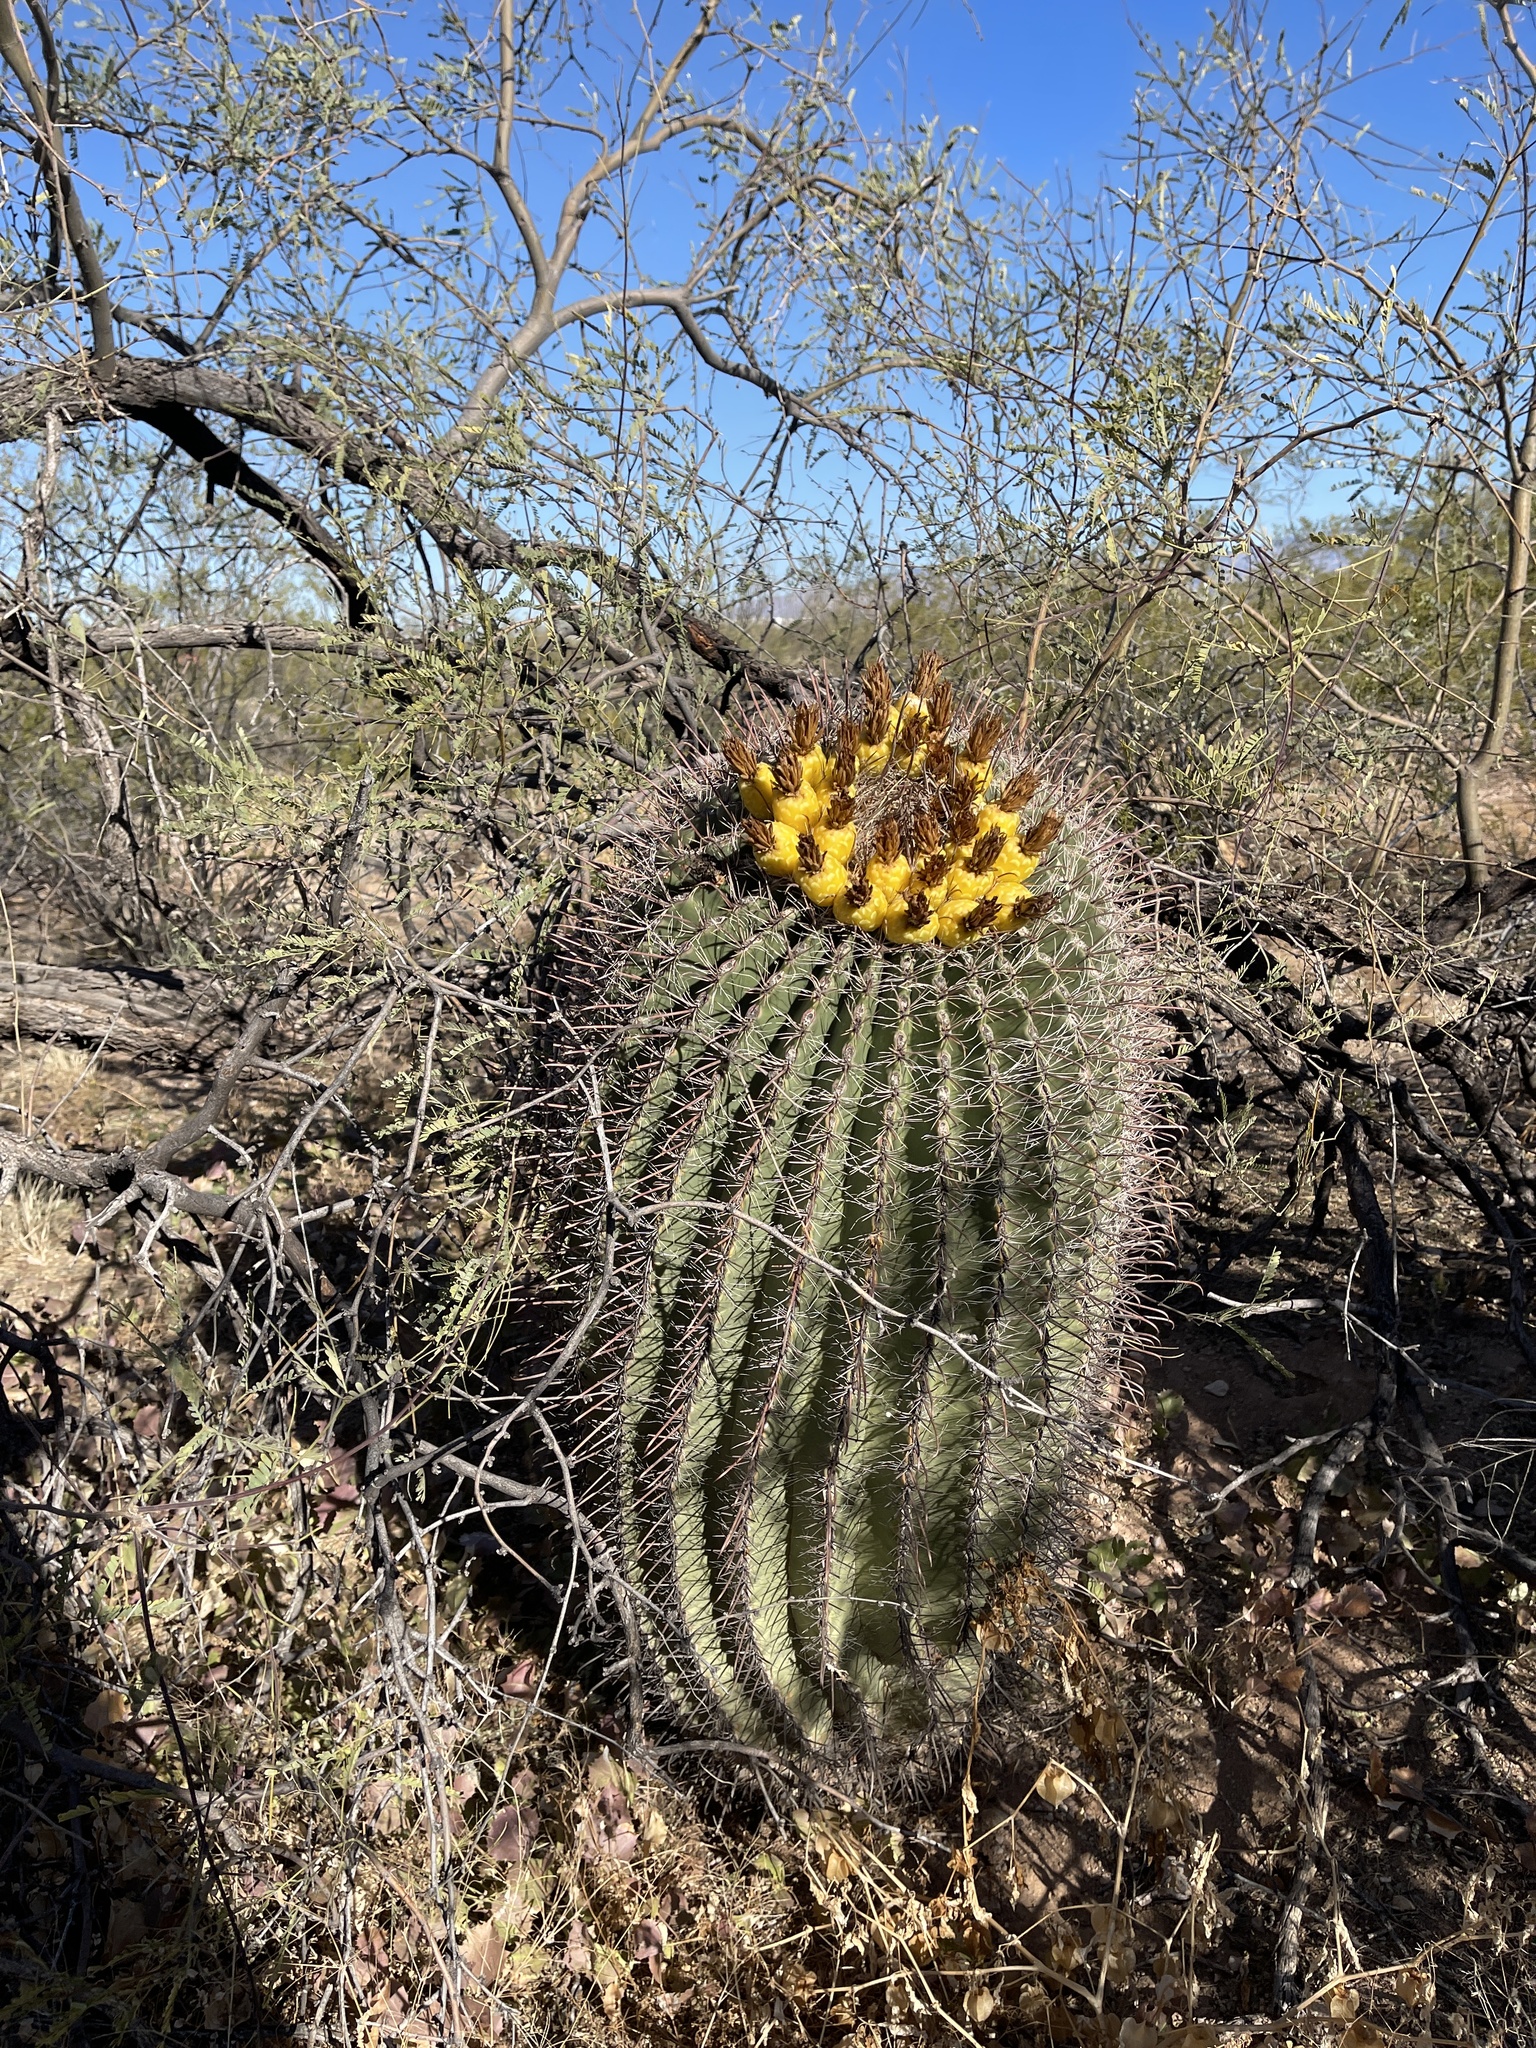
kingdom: Plantae
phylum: Tracheophyta
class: Magnoliopsida
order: Caryophyllales
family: Cactaceae
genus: Ferocactus
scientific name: Ferocactus wislizeni
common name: Candy barrel cactus
